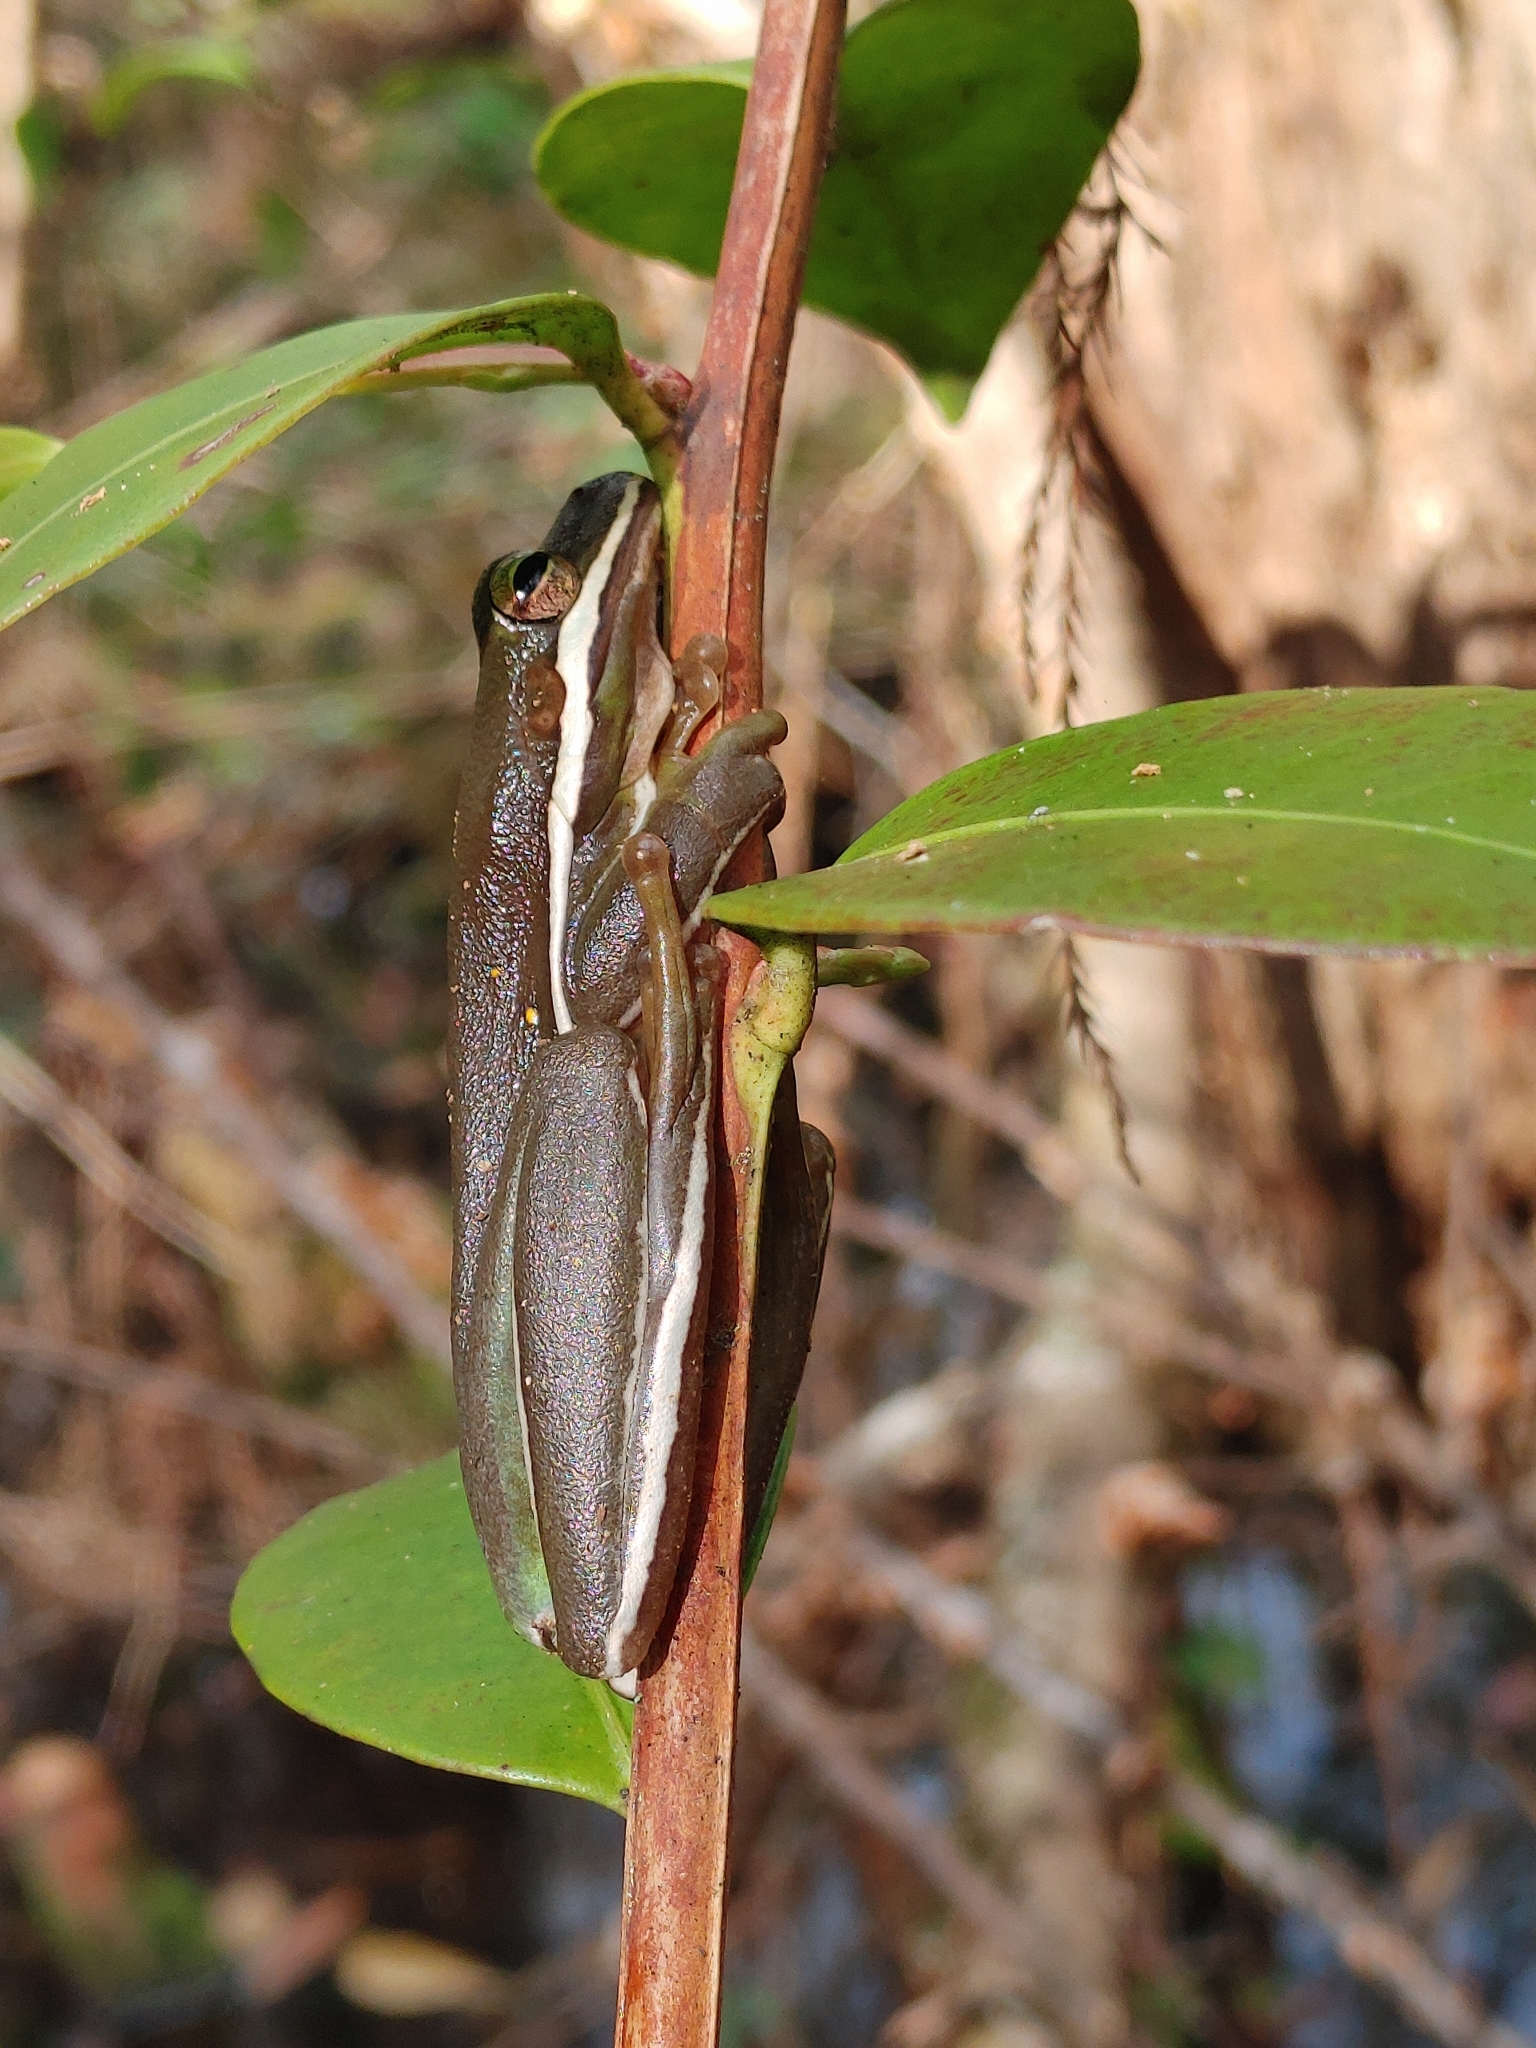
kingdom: Animalia
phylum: Chordata
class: Amphibia
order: Anura
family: Hylidae
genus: Dryophytes
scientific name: Dryophytes cinereus
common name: Green treefrog
